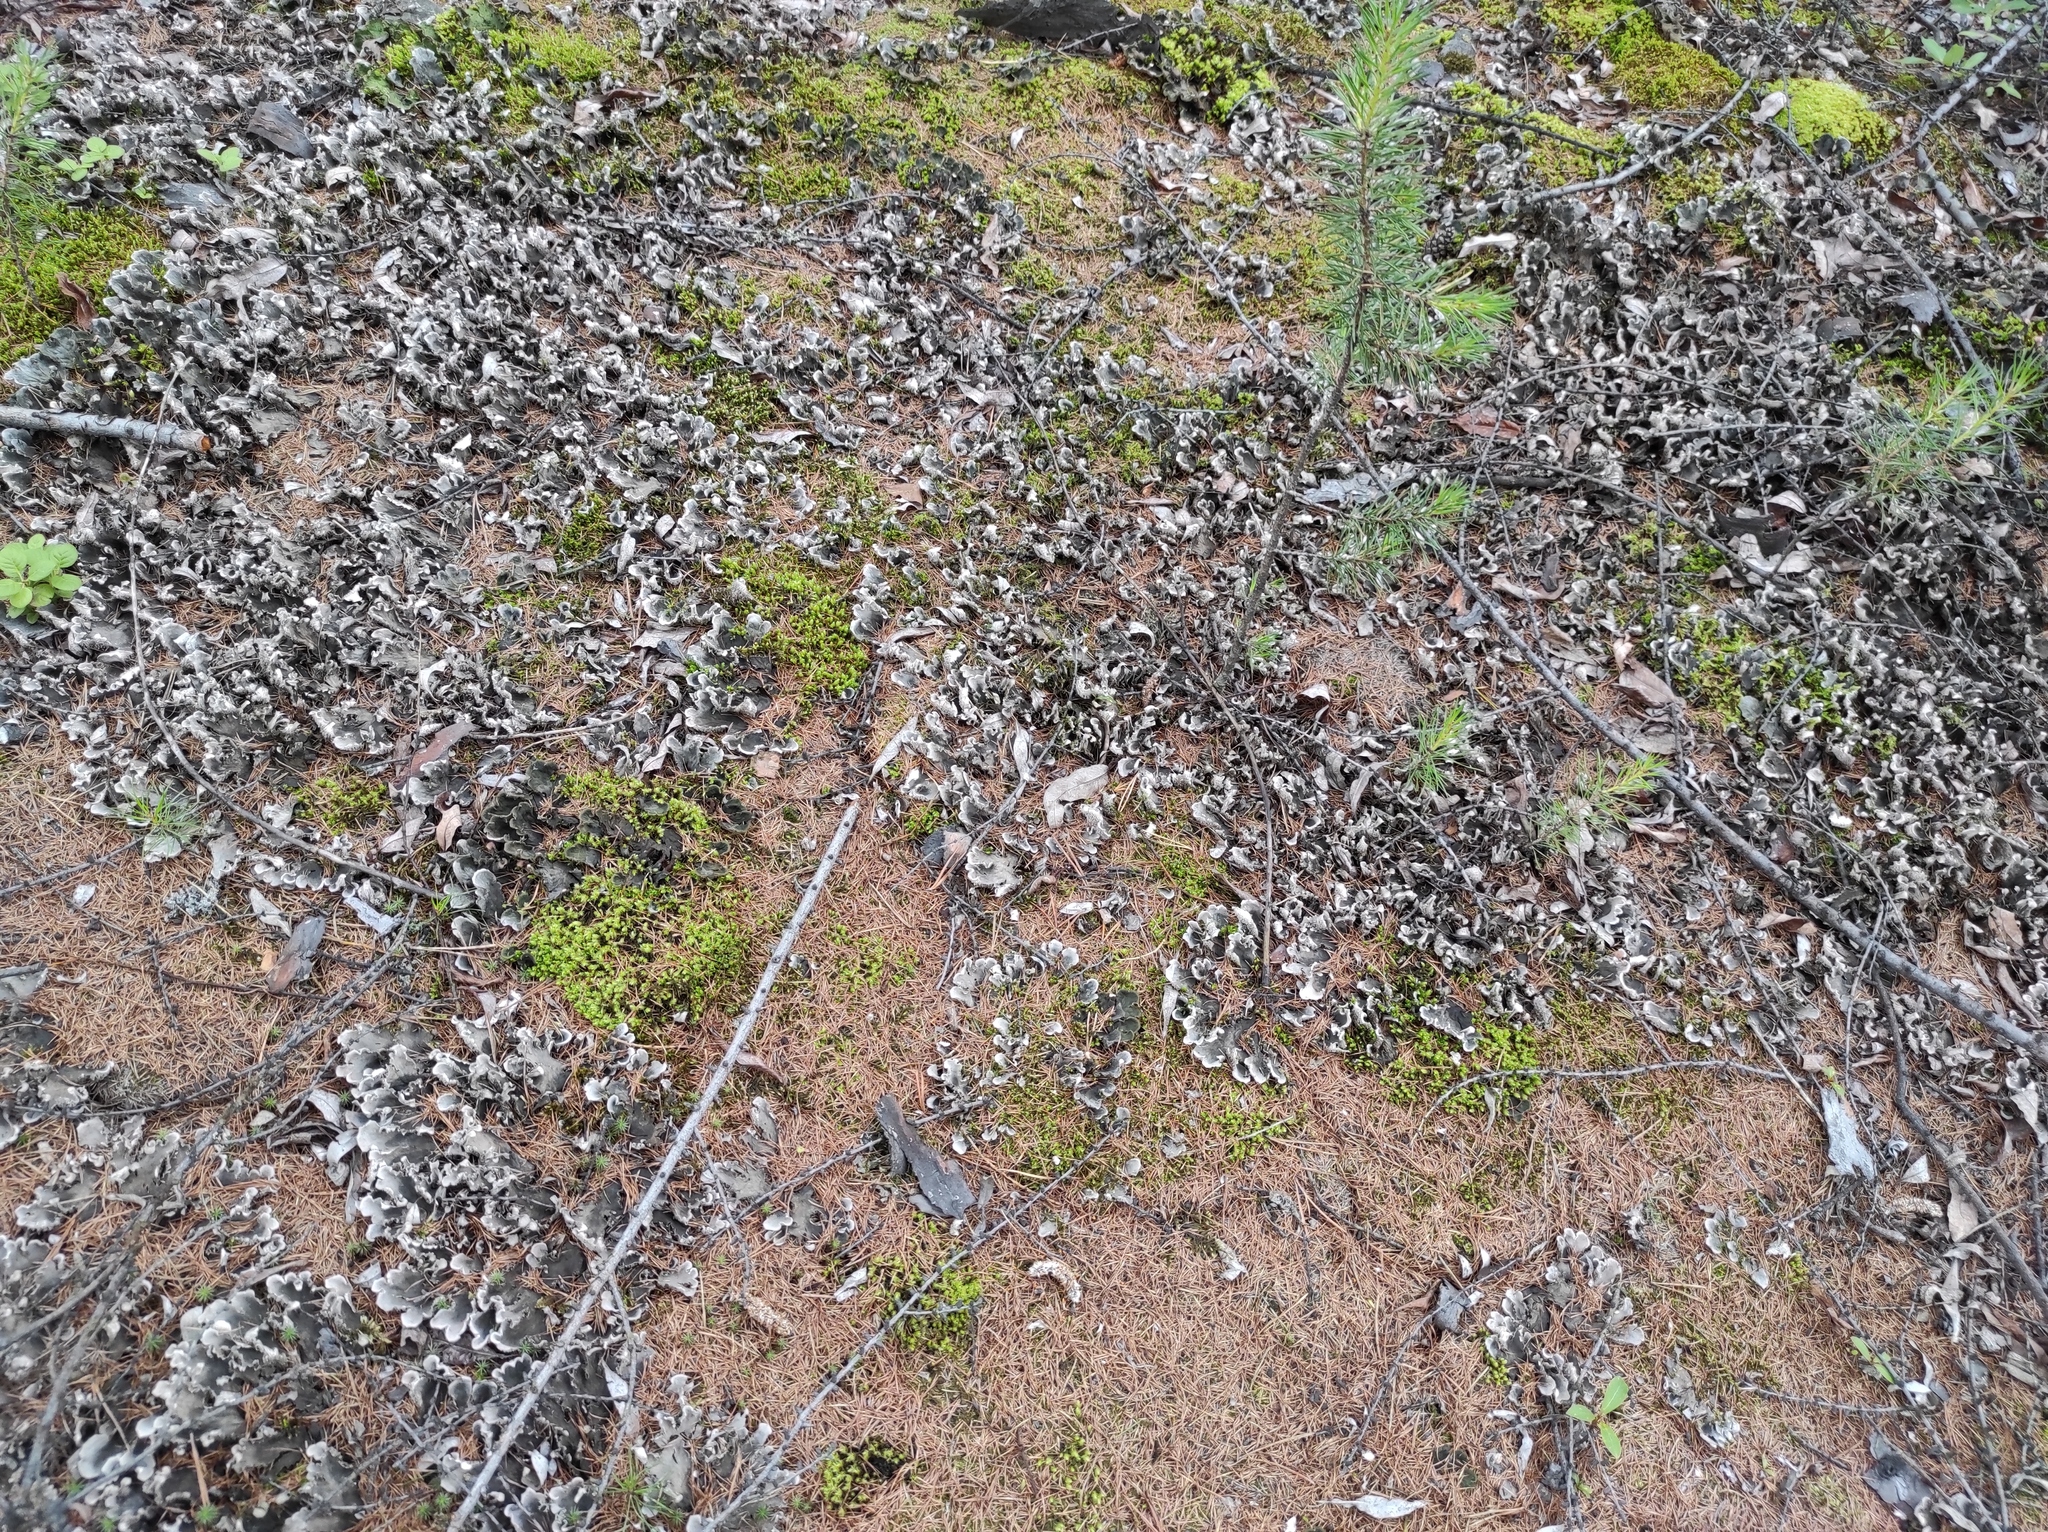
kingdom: Plantae
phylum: Tracheophyta
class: Pinopsida
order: Pinales
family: Pinaceae
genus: Pinus
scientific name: Pinus sylvestris
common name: Scots pine
